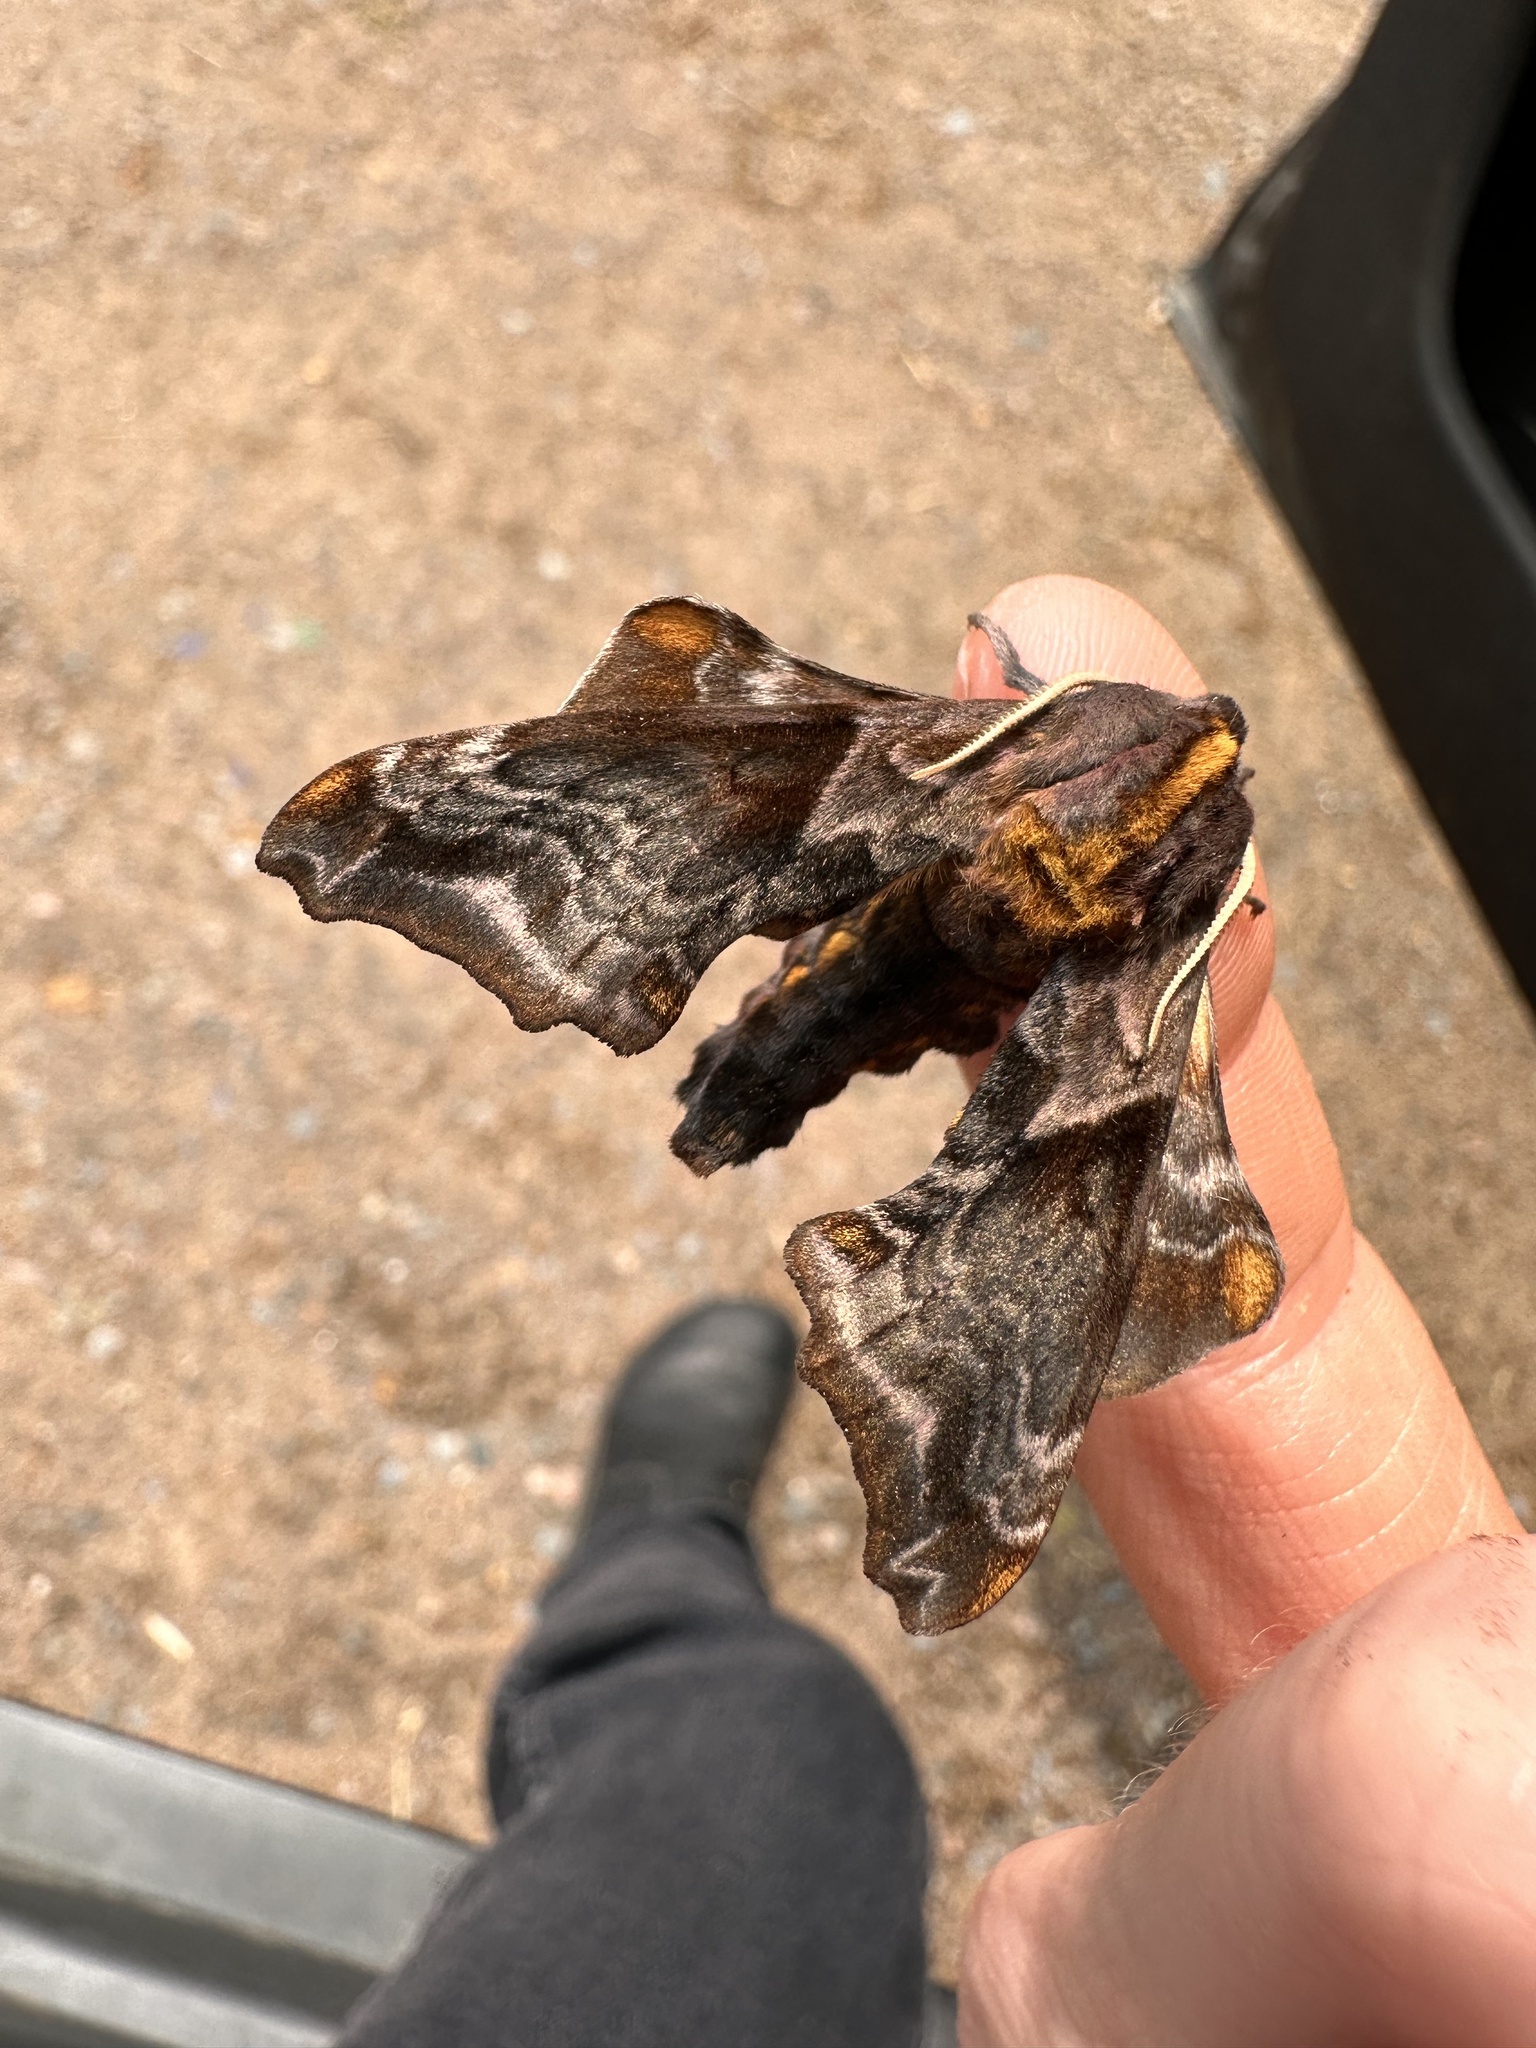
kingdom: Animalia
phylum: Arthropoda
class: Insecta
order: Lepidoptera
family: Sphingidae
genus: Paonias
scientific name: Paonias myops
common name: Small-eyed sphinx
